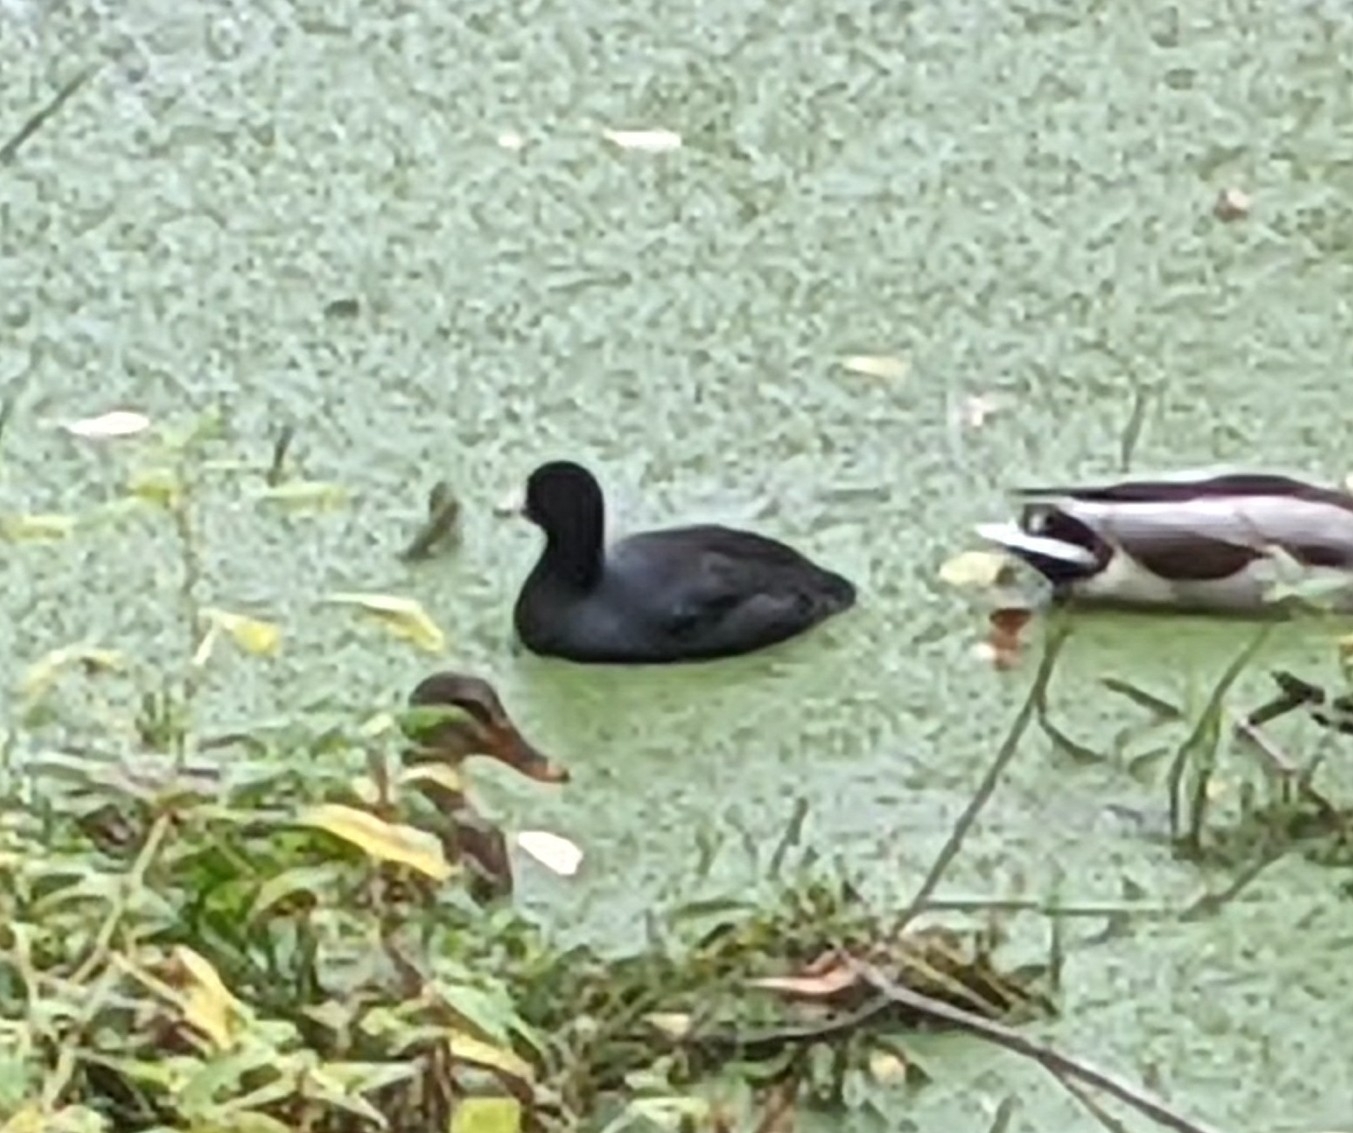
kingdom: Animalia
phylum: Chordata
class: Aves
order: Gruiformes
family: Rallidae
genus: Fulica
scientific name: Fulica americana
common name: American coot
